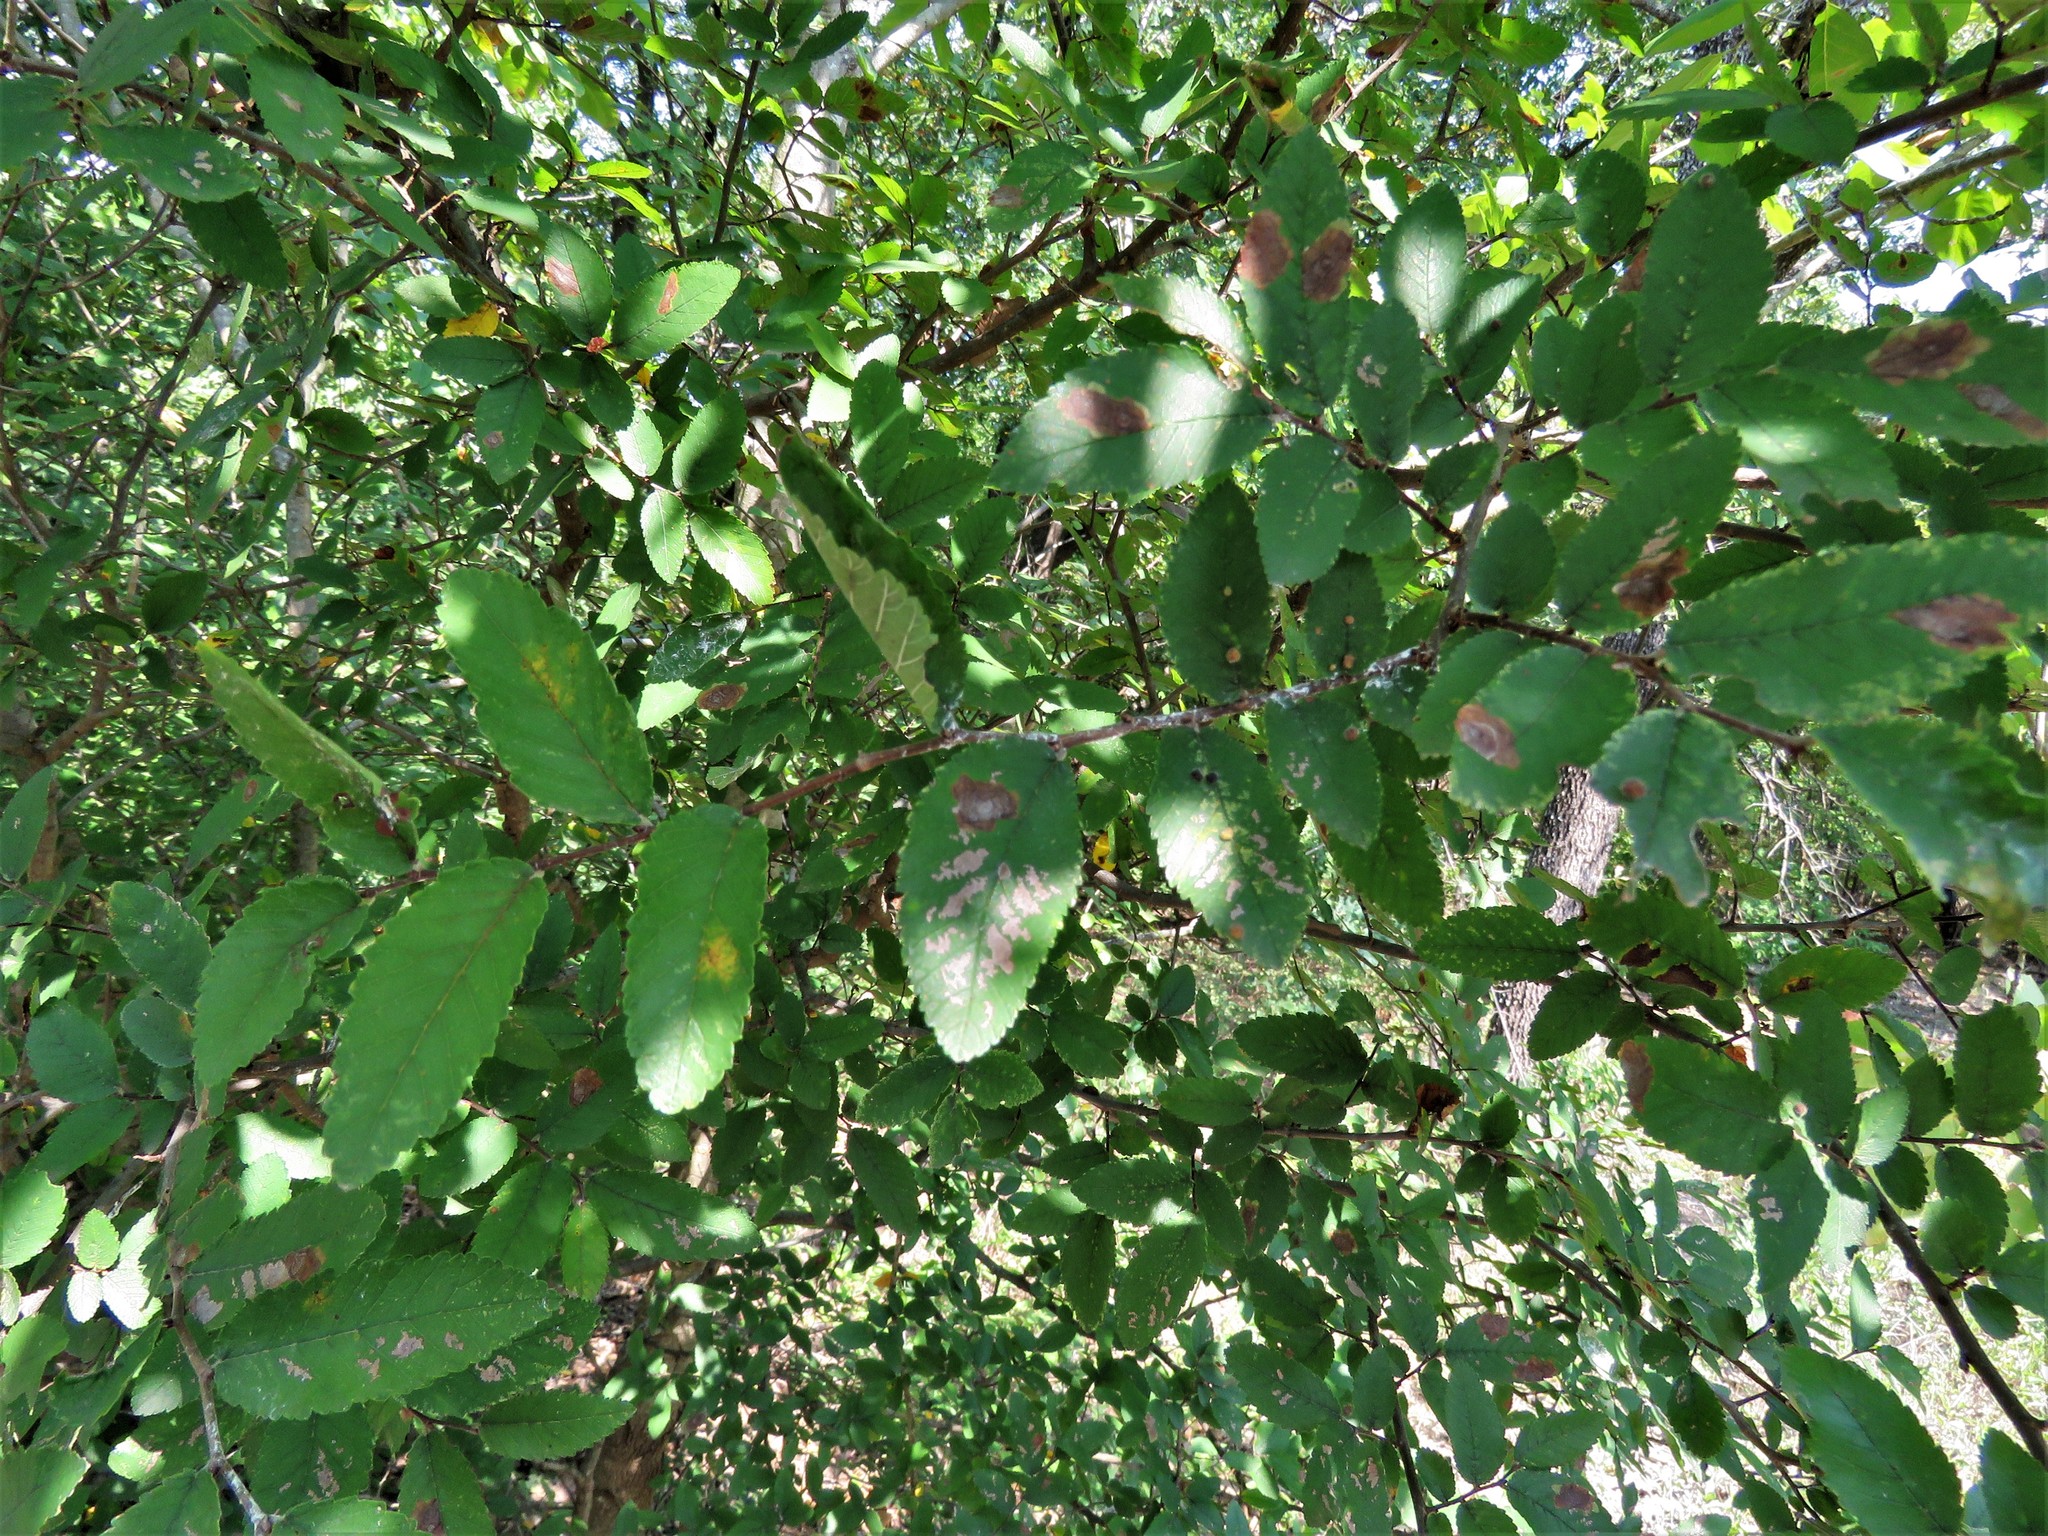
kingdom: Plantae
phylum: Tracheophyta
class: Magnoliopsida
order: Rosales
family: Ulmaceae
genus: Ulmus
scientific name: Ulmus crassifolia
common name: Basket elm
